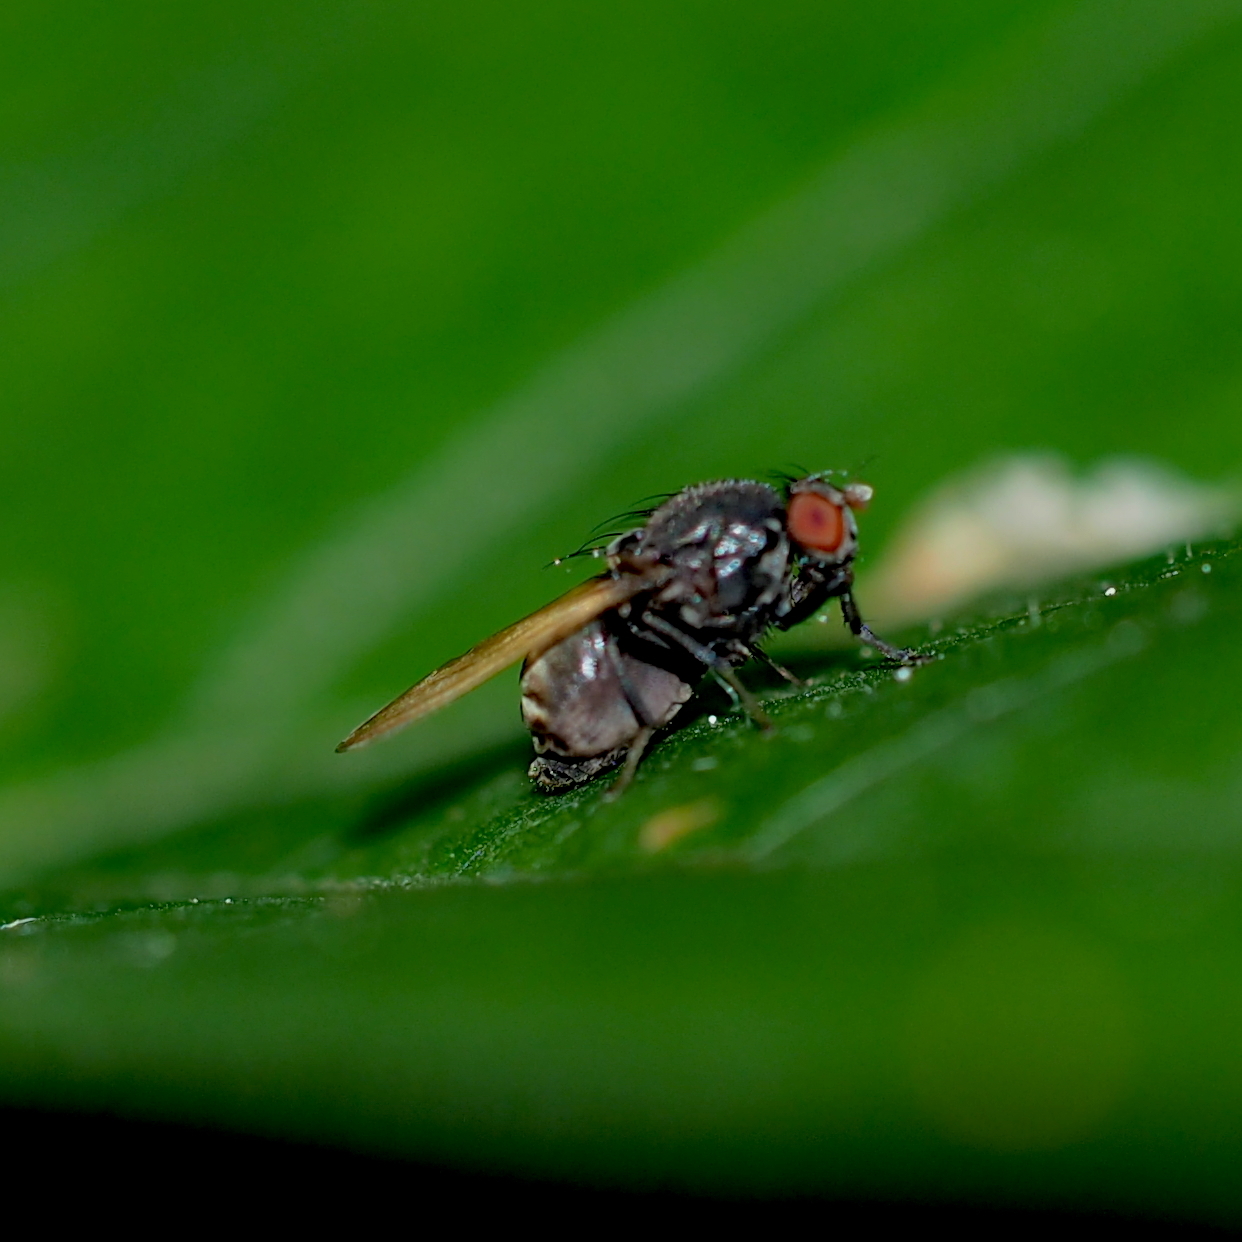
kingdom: Animalia
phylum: Arthropoda
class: Insecta
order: Diptera
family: Lauxaniidae
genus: Minettia
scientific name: Minettia longipennis
